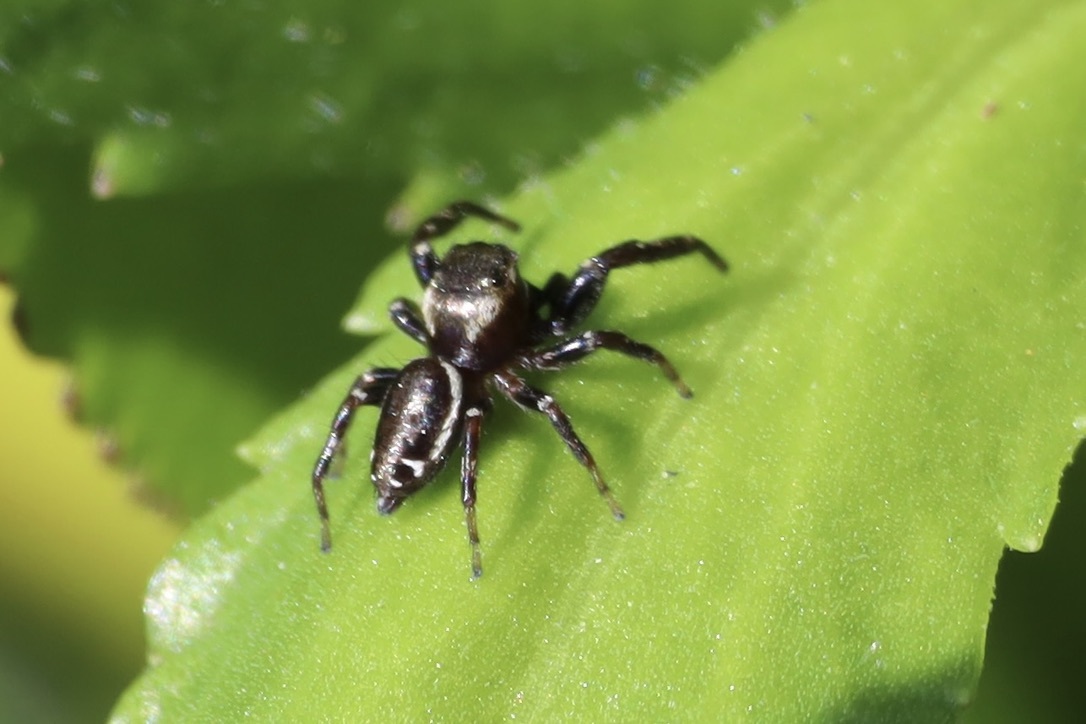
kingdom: Animalia
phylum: Arthropoda
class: Arachnida
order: Araneae
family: Salticidae
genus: Metaphidippus
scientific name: Metaphidippus manni
